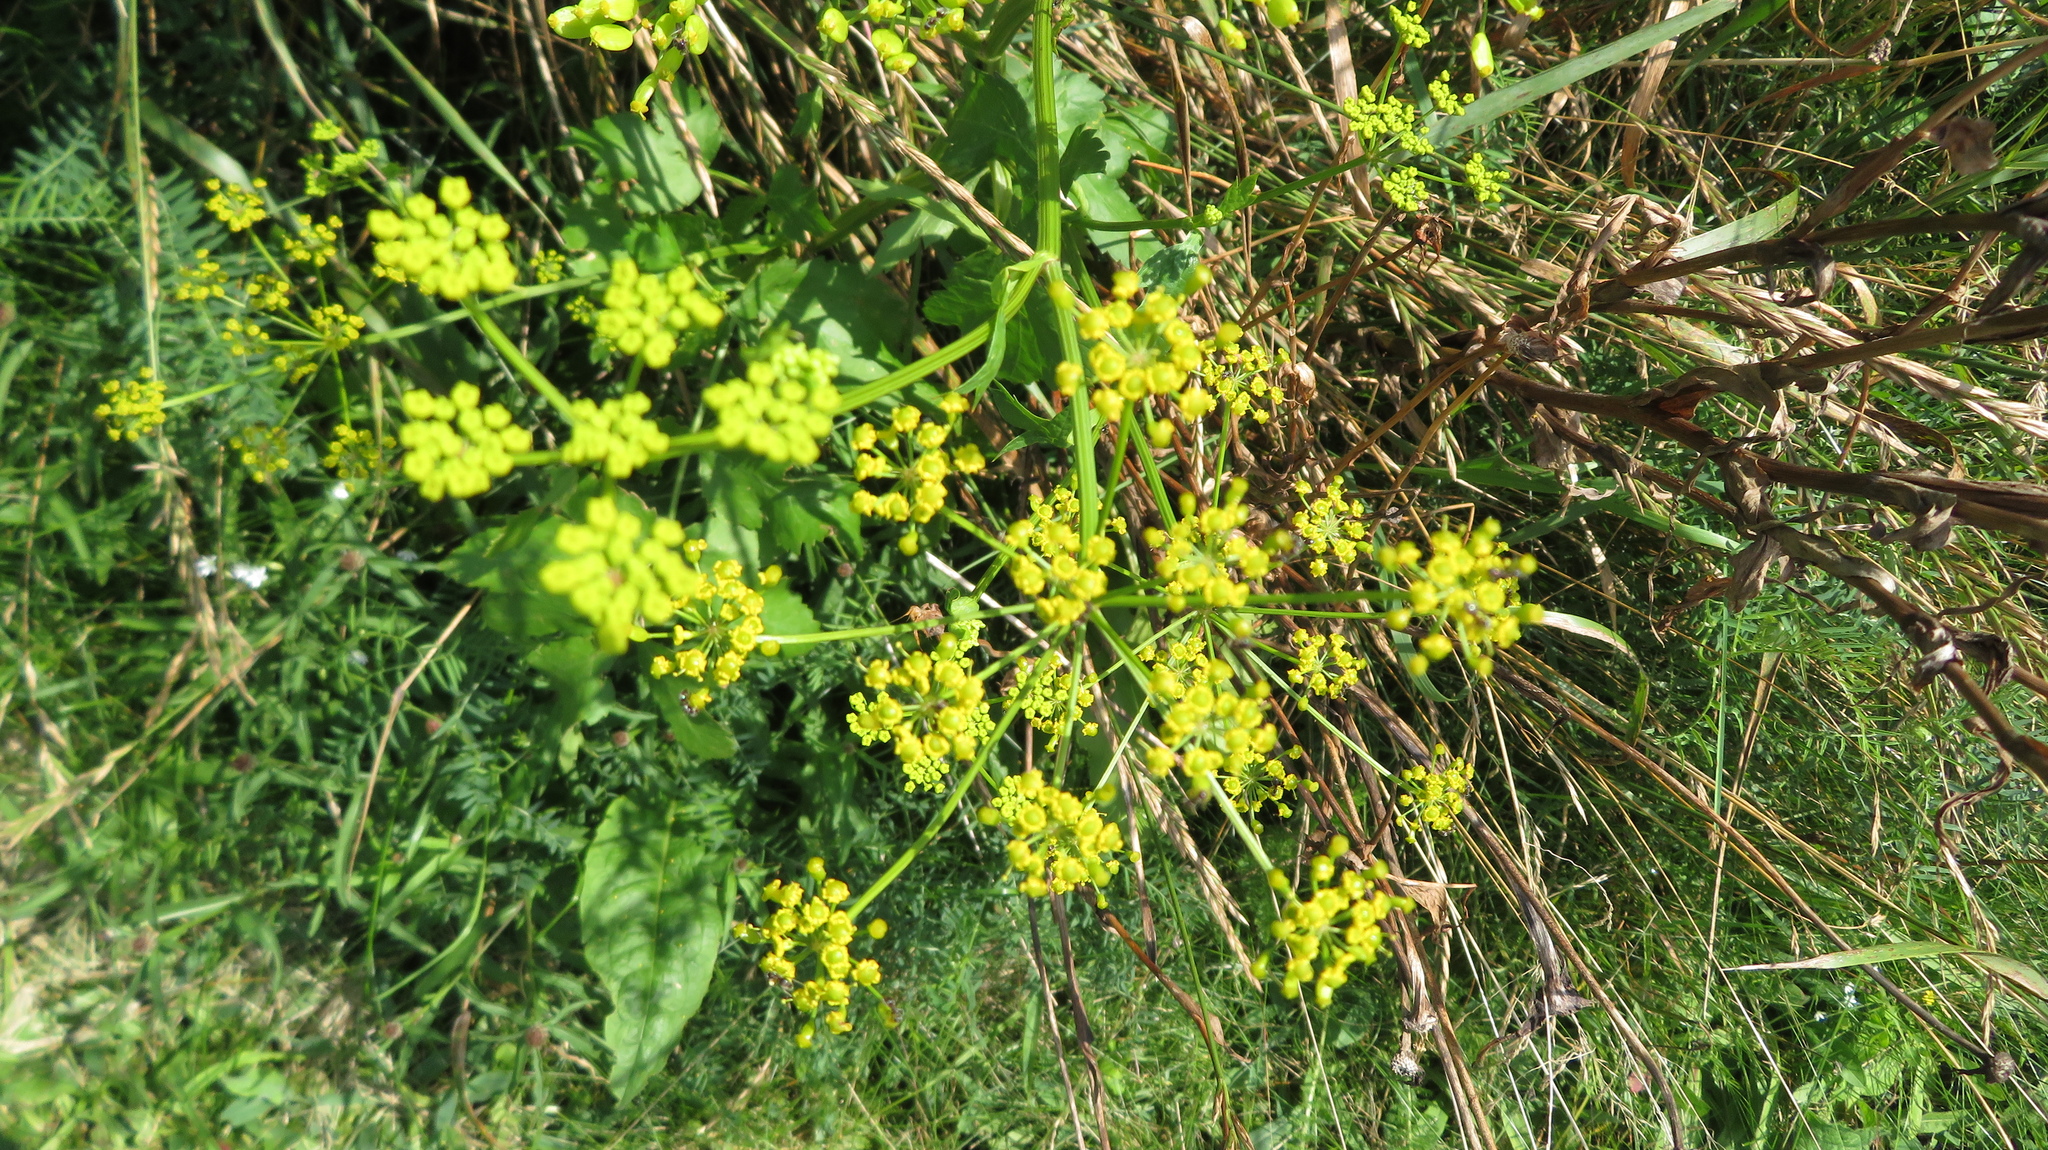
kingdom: Plantae
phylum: Tracheophyta
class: Magnoliopsida
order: Apiales
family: Apiaceae
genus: Pastinaca
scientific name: Pastinaca sativa
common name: Wild parsnip
